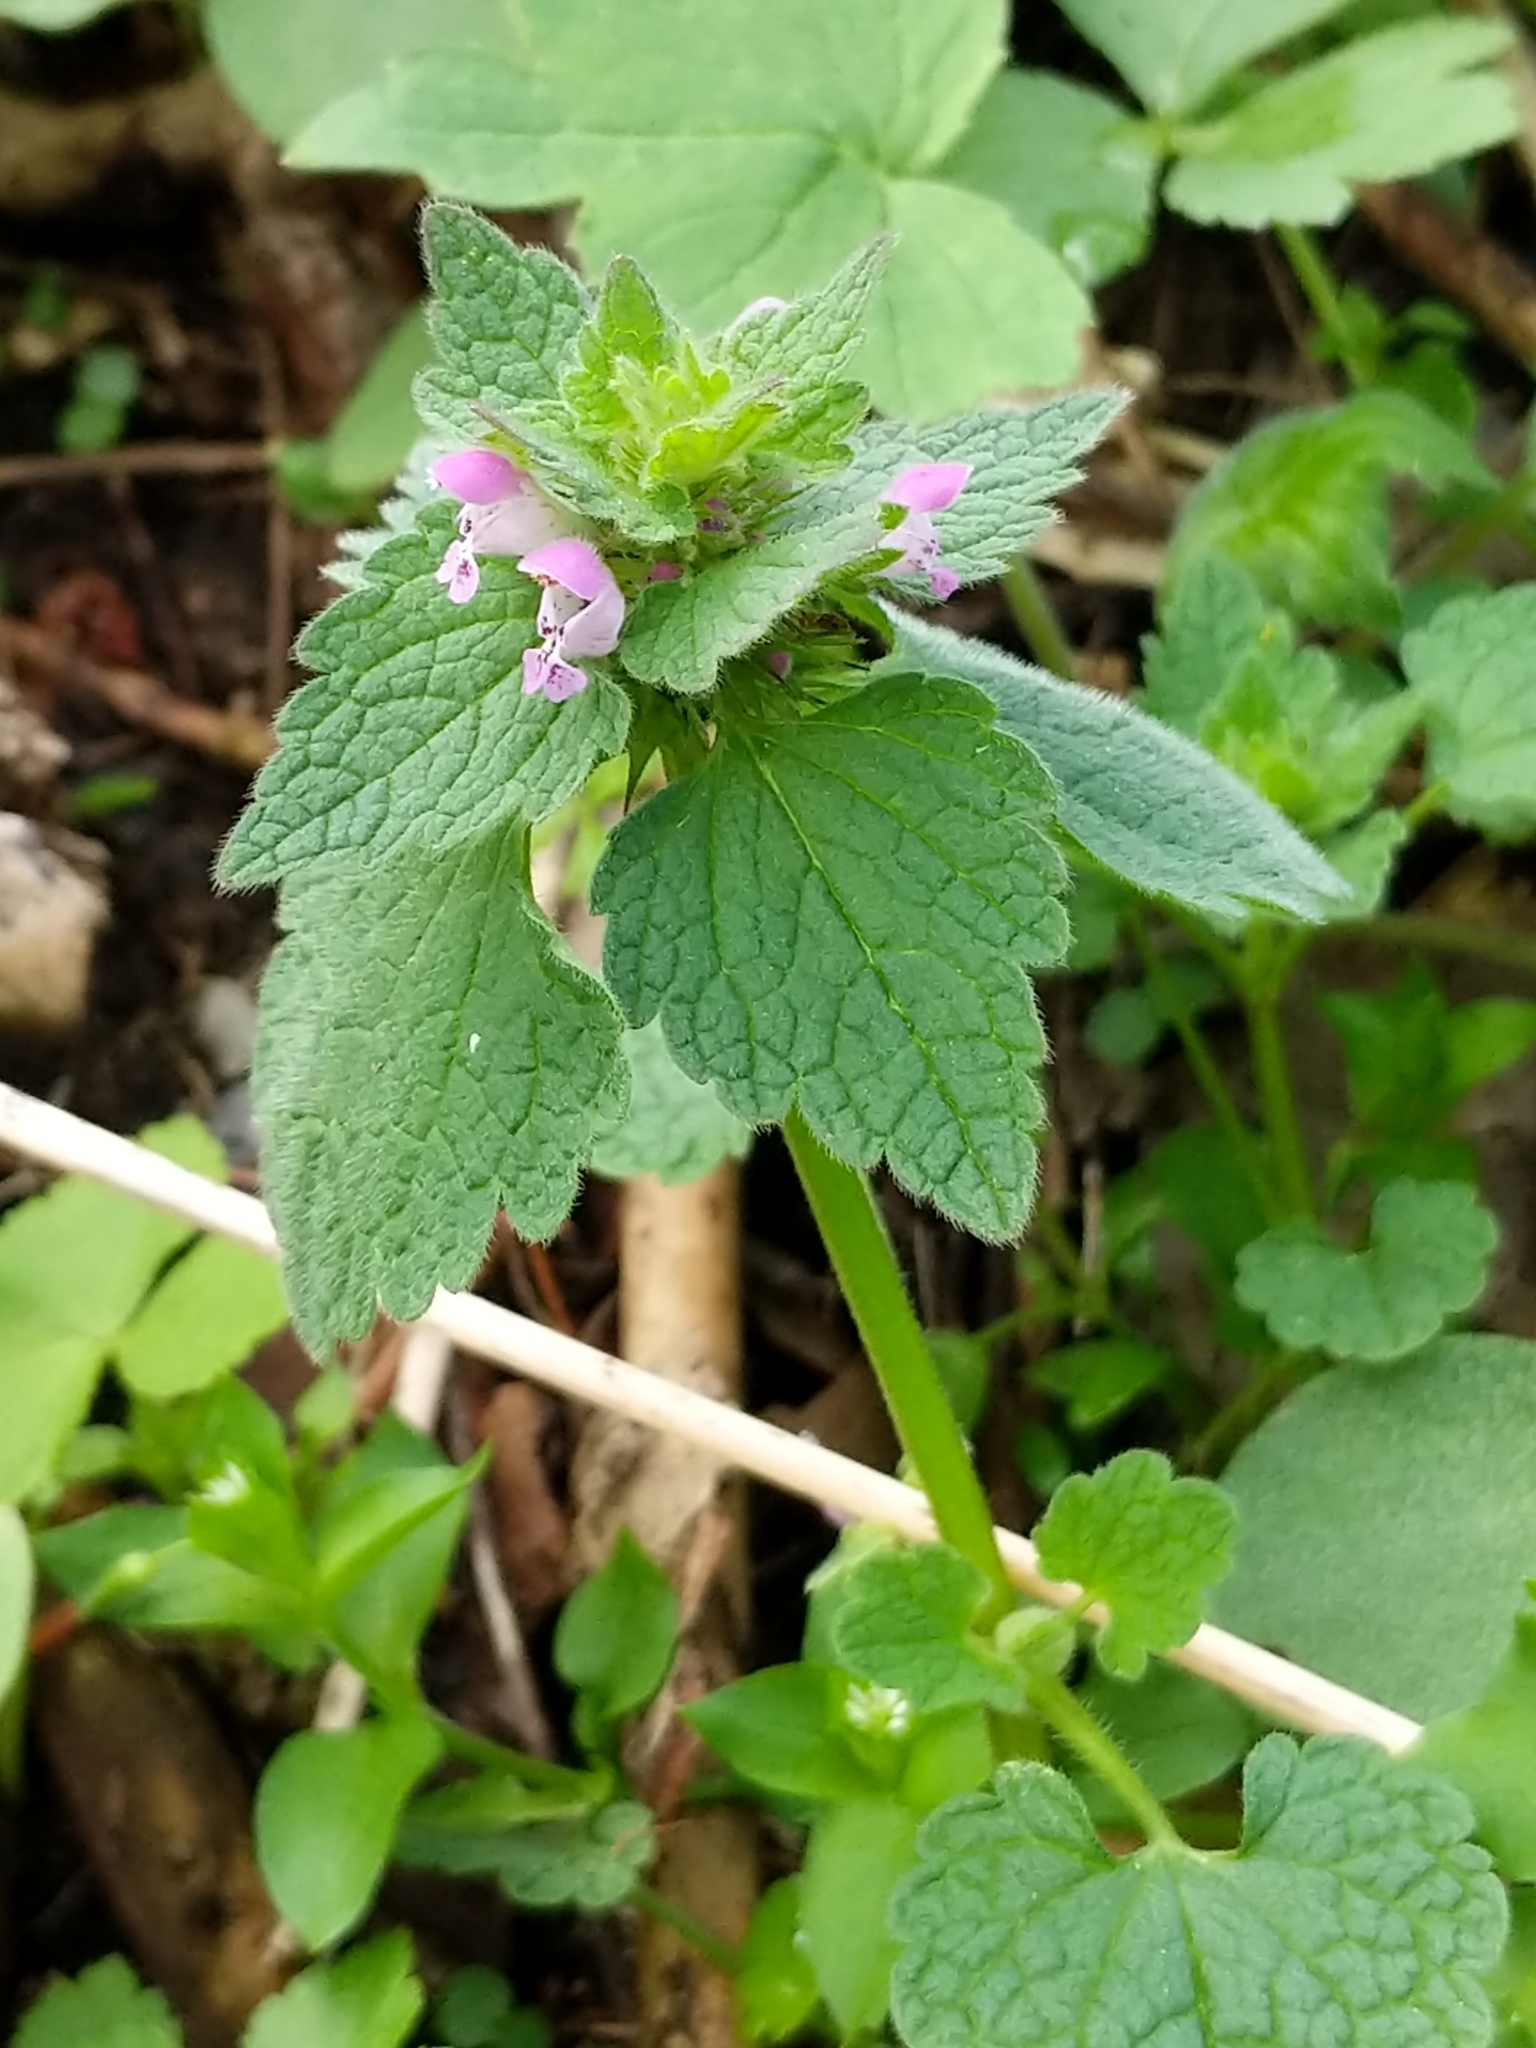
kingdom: Plantae
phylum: Tracheophyta
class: Magnoliopsida
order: Lamiales
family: Lamiaceae
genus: Lamium
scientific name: Lamium purpureum
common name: Red dead-nettle
